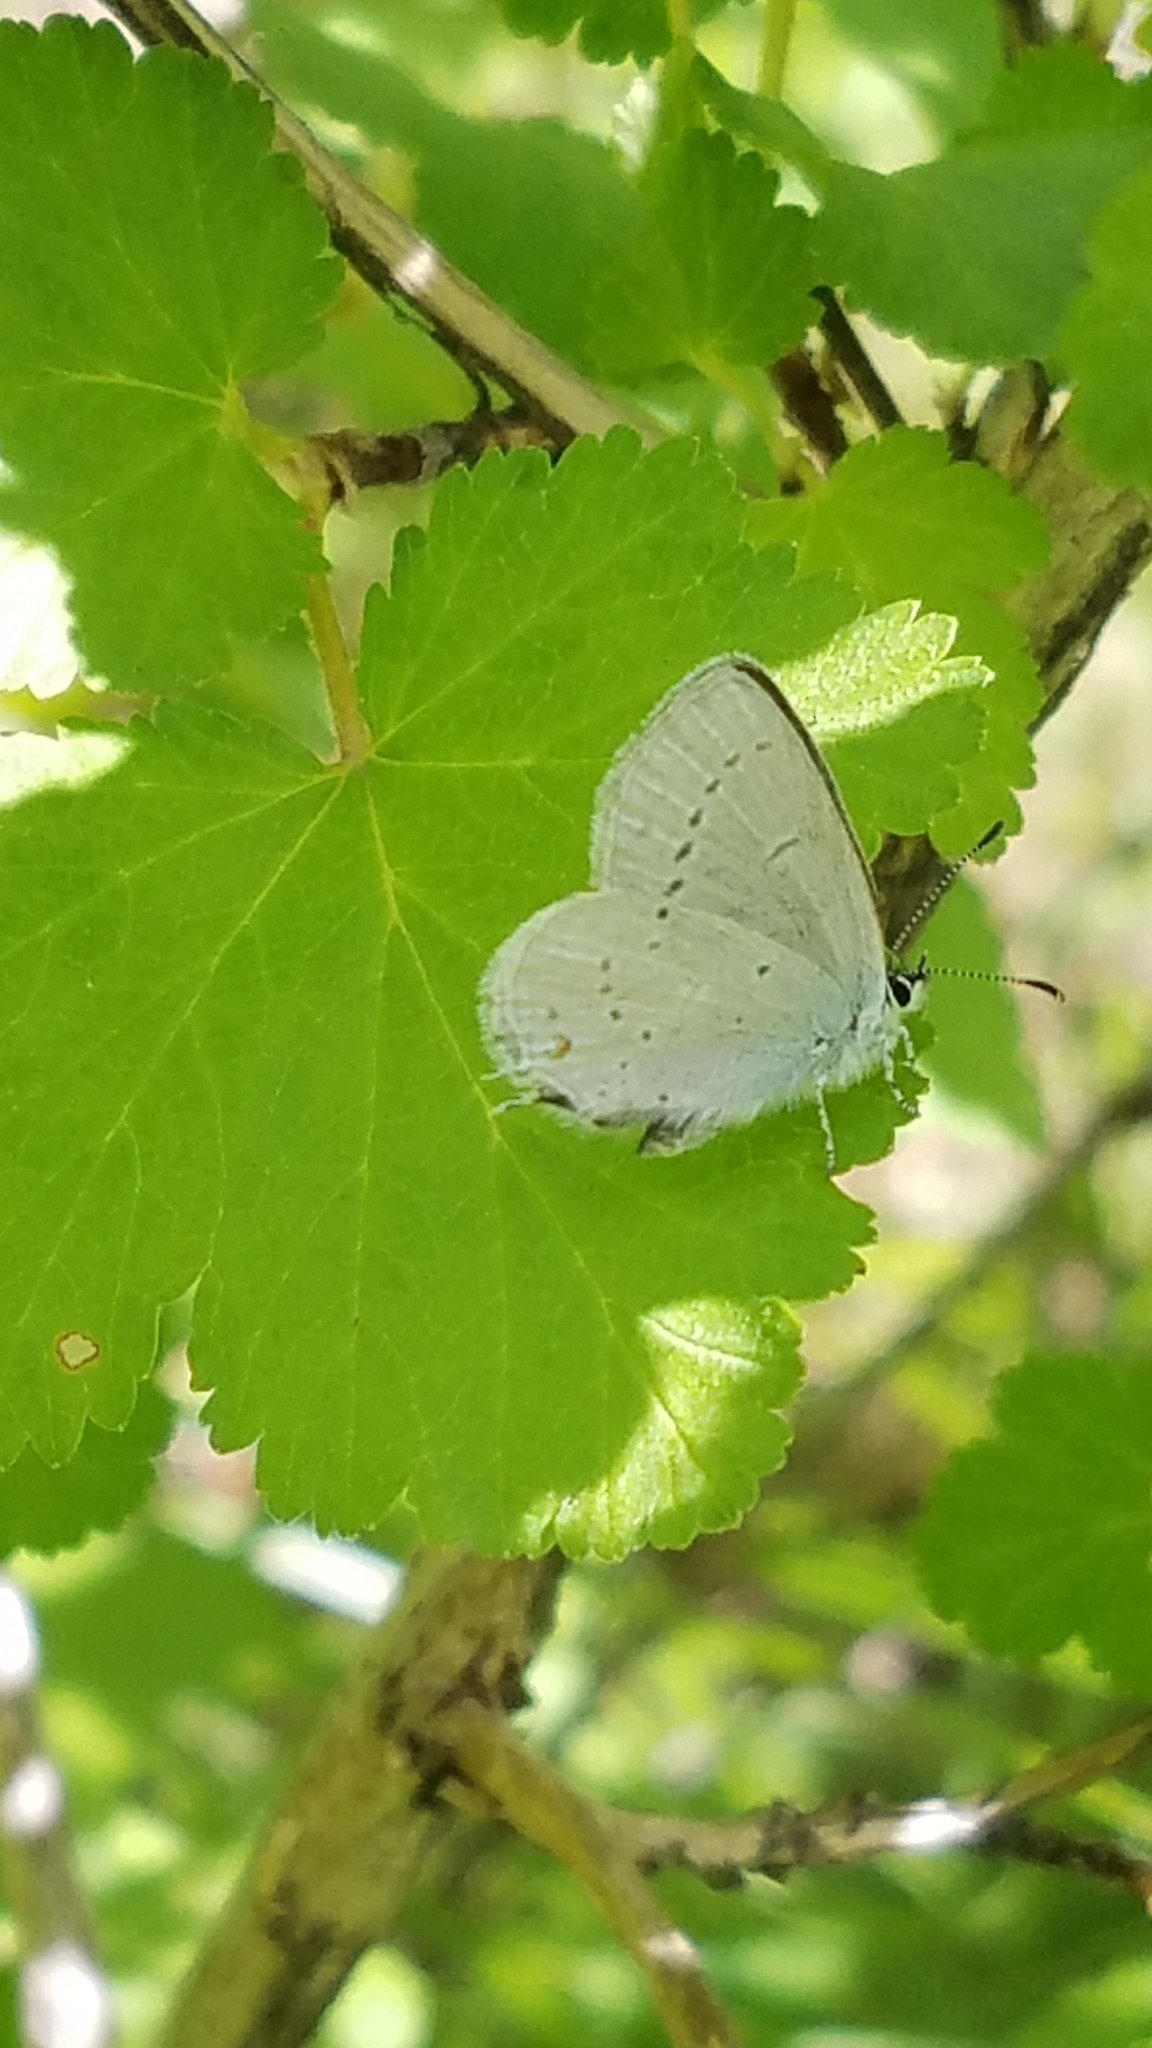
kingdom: Animalia
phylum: Arthropoda
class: Insecta
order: Lepidoptera
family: Lycaenidae
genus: Elkalyce
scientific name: Elkalyce amyntula
